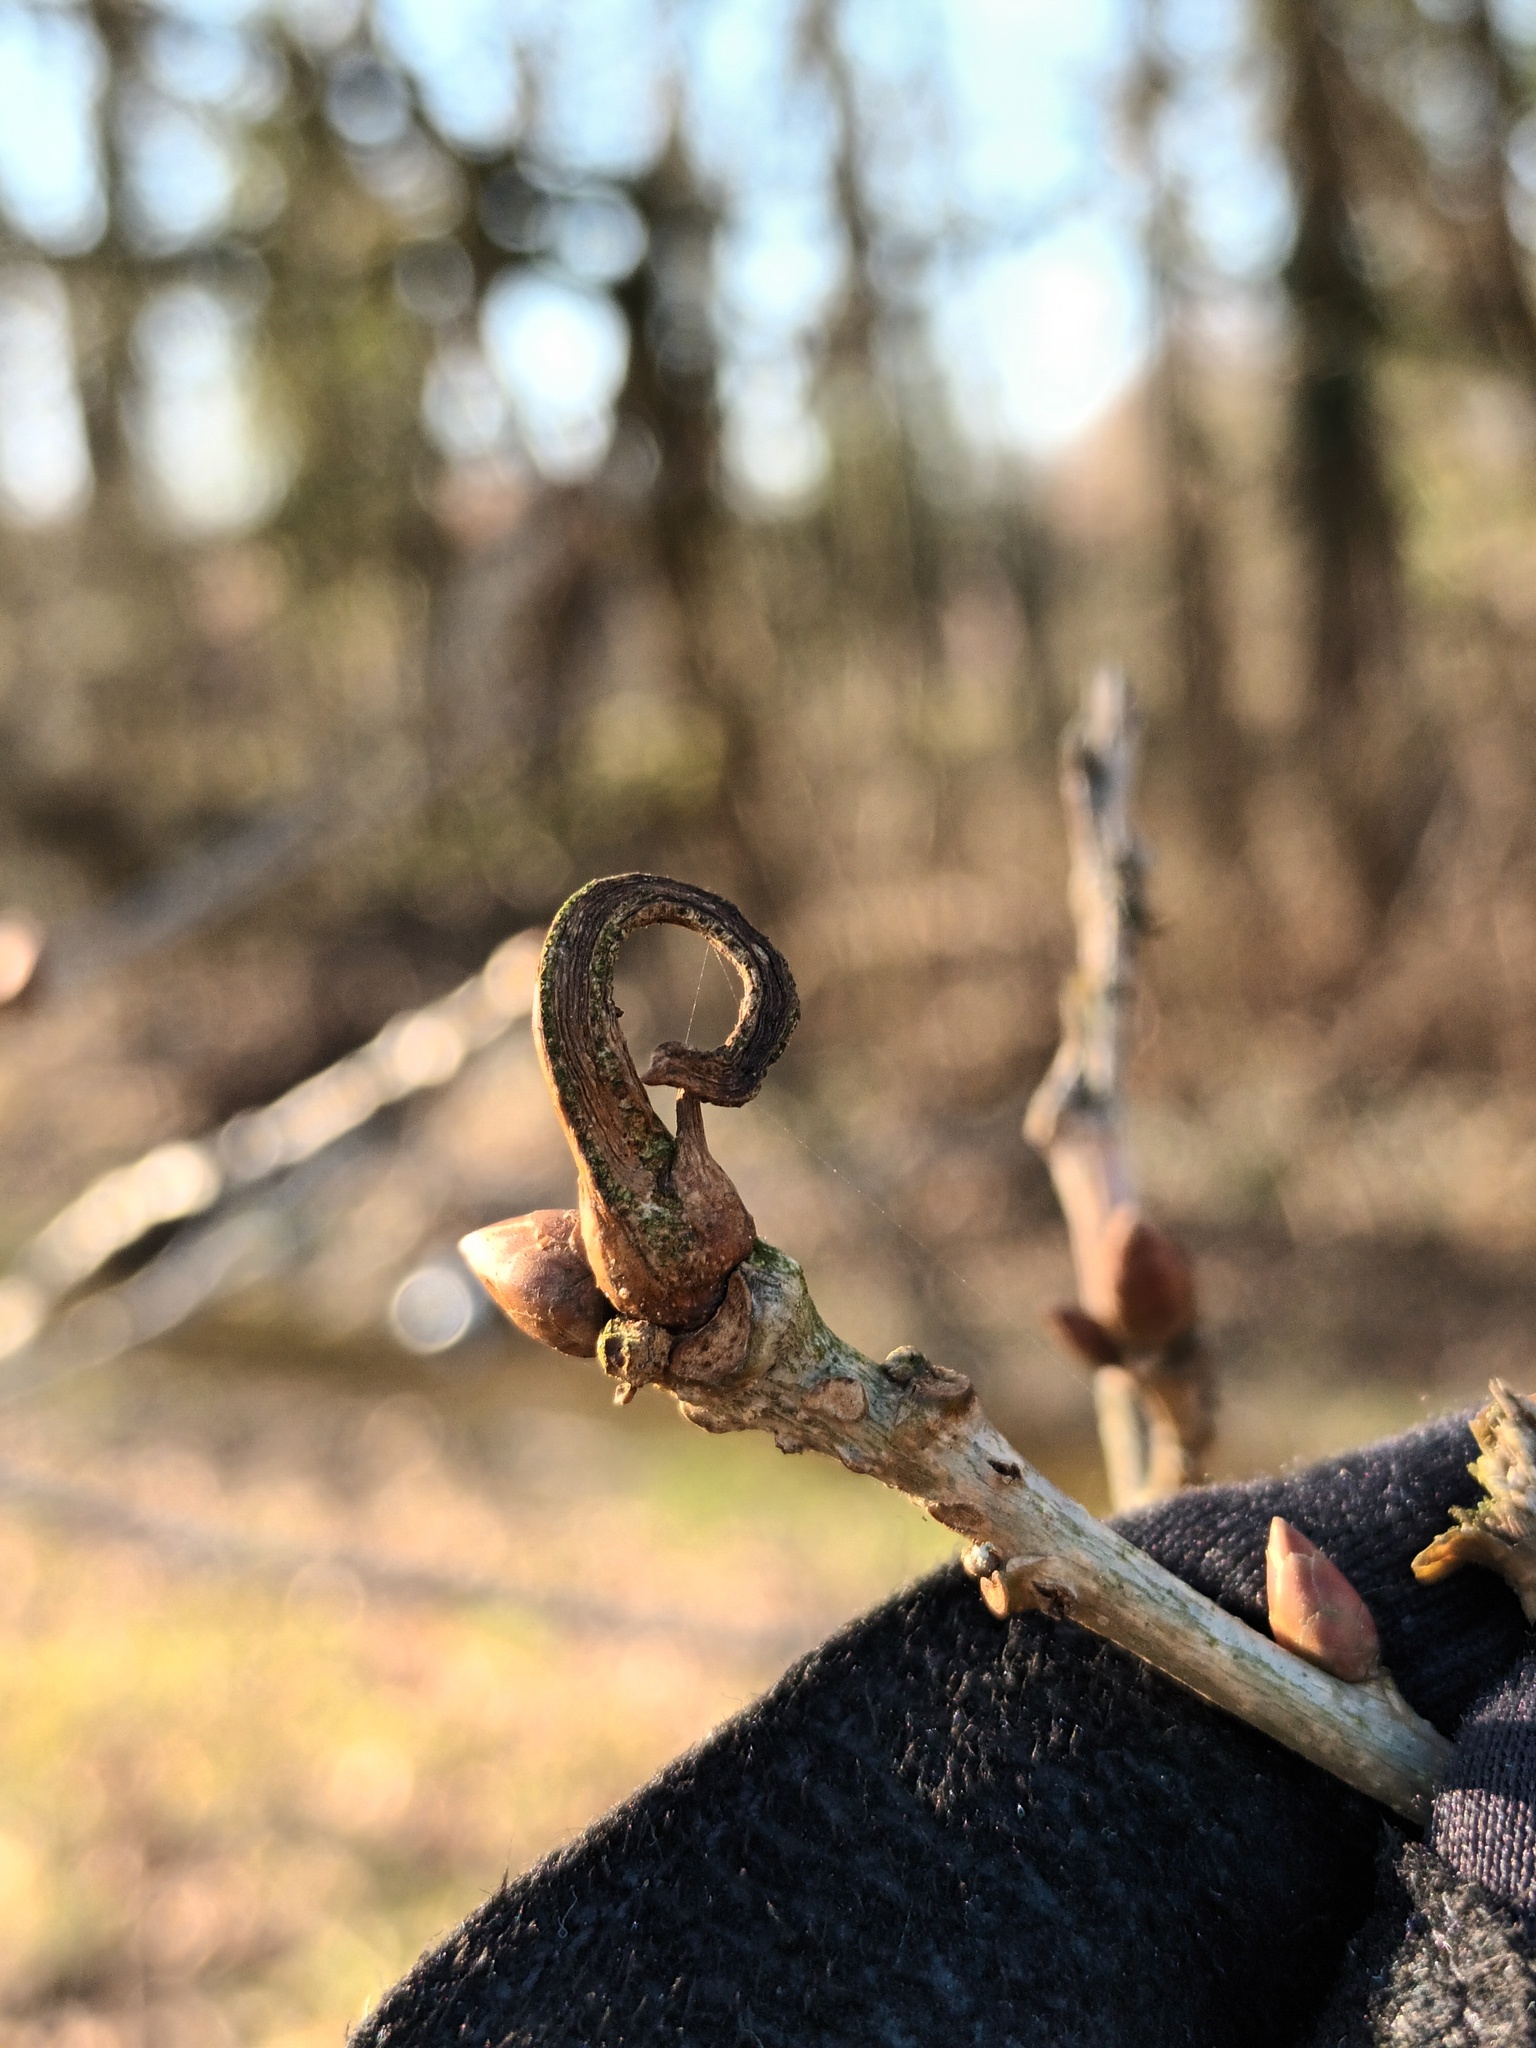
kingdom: Animalia
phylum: Arthropoda
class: Insecta
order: Hymenoptera
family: Cynipidae
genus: Andricus
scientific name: Andricus aries
